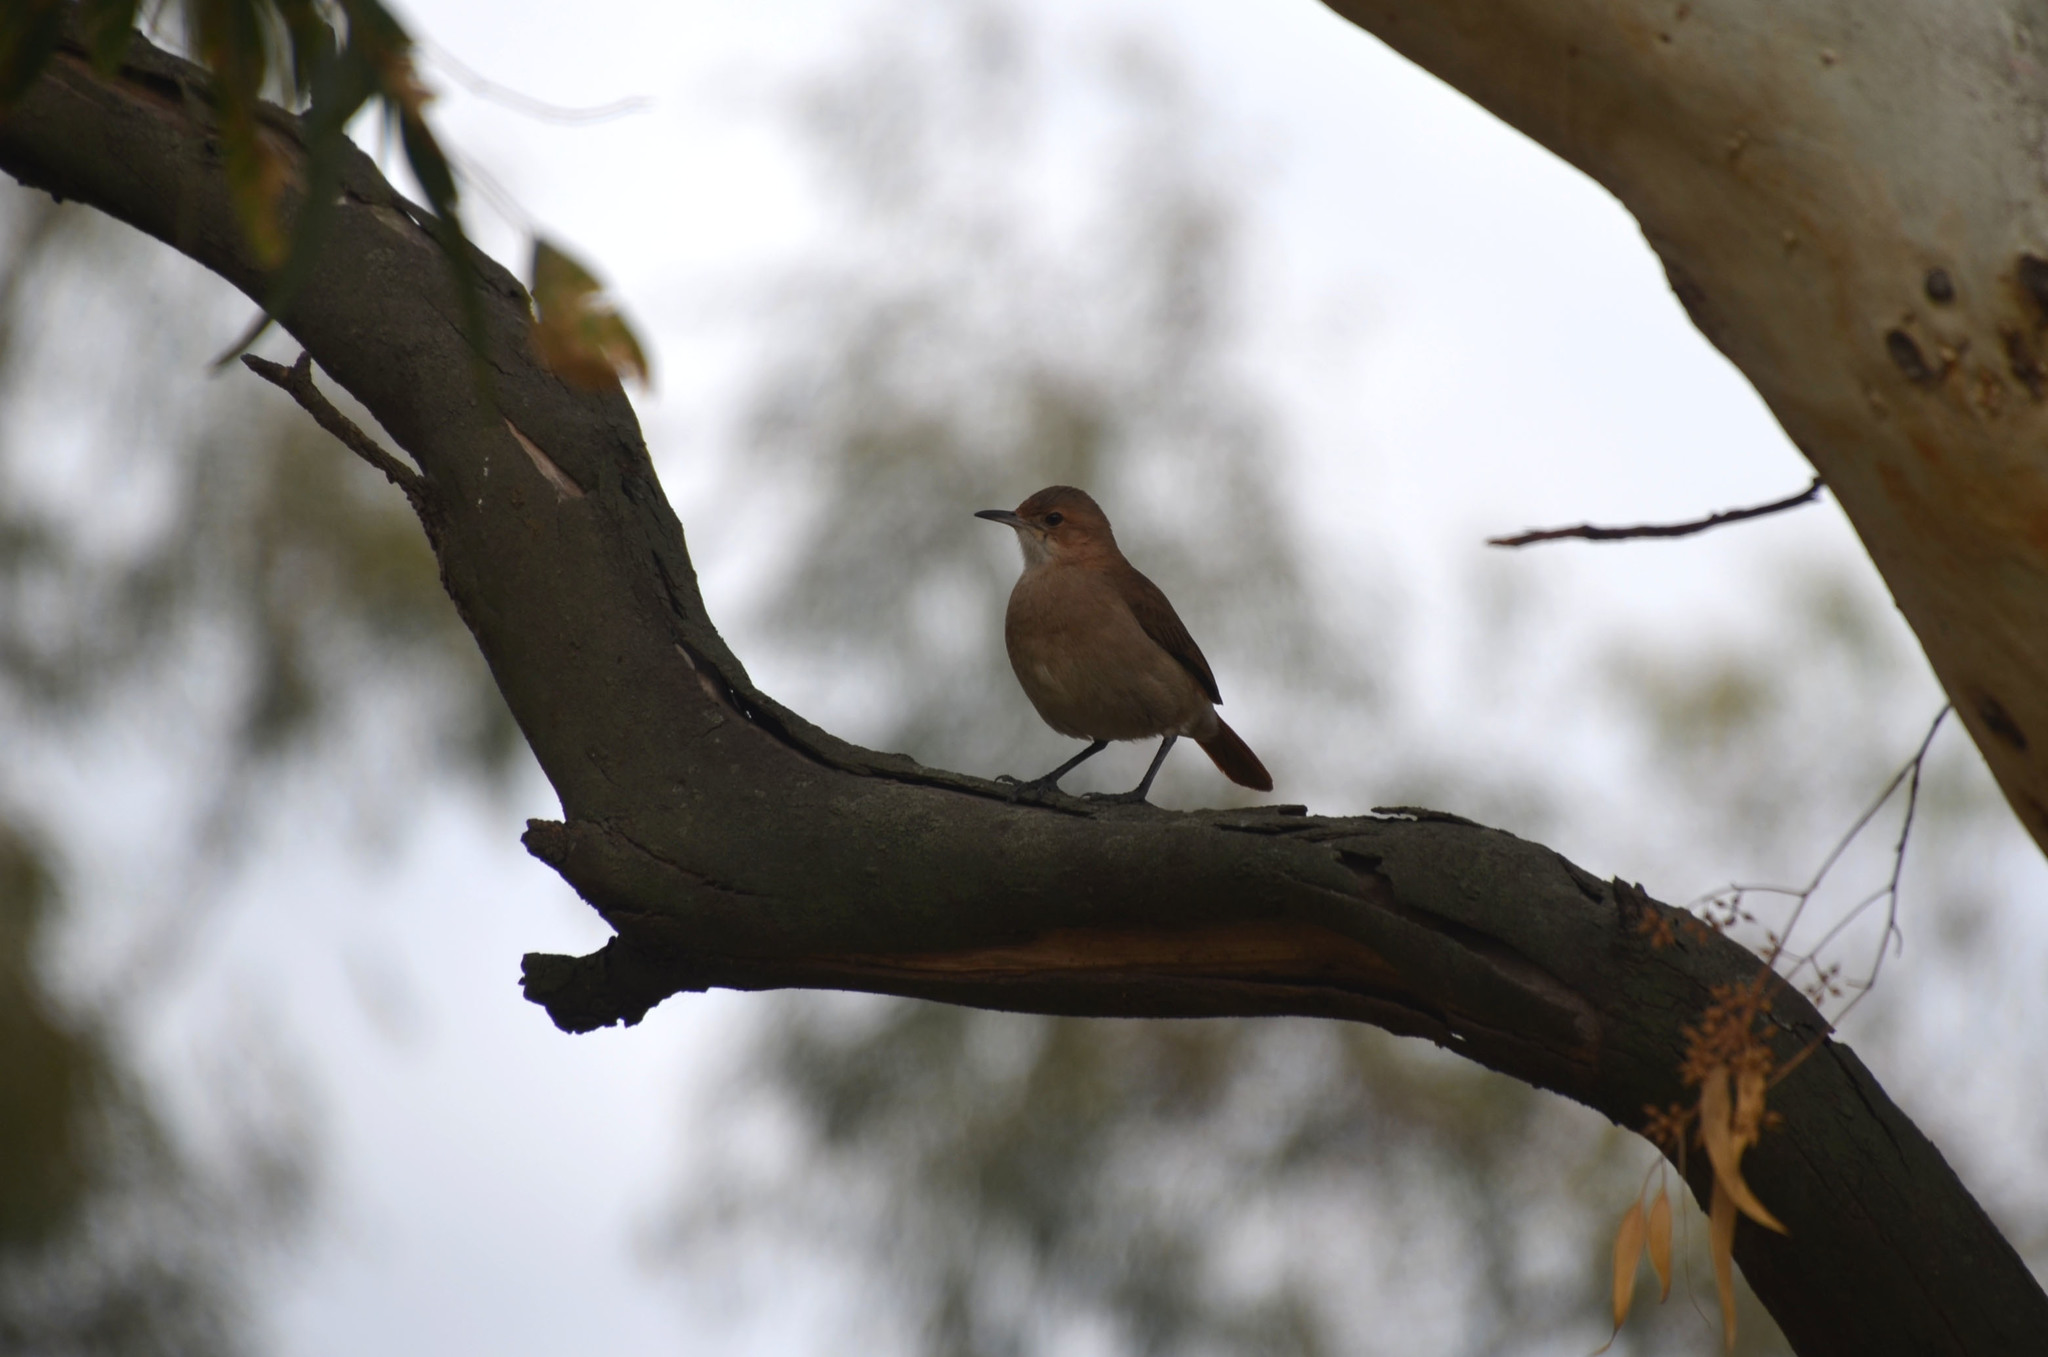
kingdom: Animalia
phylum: Chordata
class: Aves
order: Passeriformes
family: Furnariidae
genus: Furnarius
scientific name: Furnarius rufus
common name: Rufous hornero
